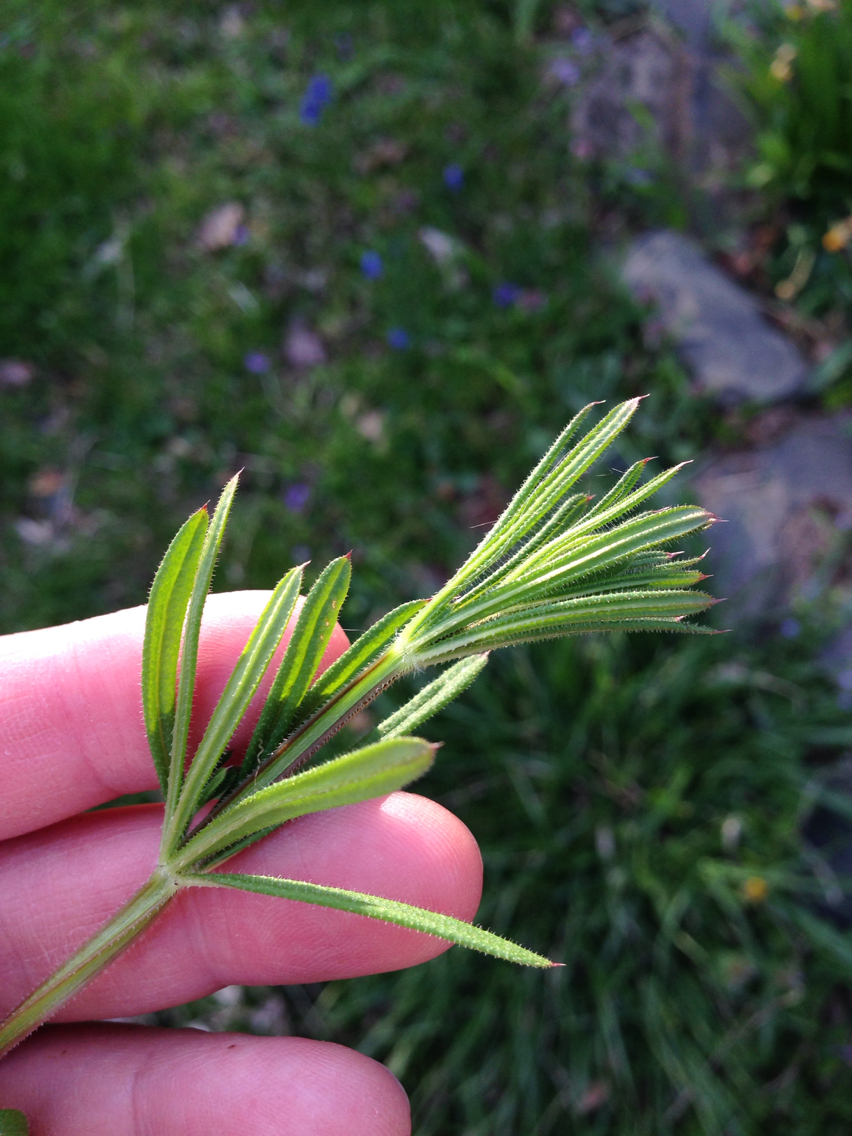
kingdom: Plantae
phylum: Tracheophyta
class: Magnoliopsida
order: Gentianales
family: Rubiaceae
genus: Galium
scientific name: Galium aparine
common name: Cleavers
